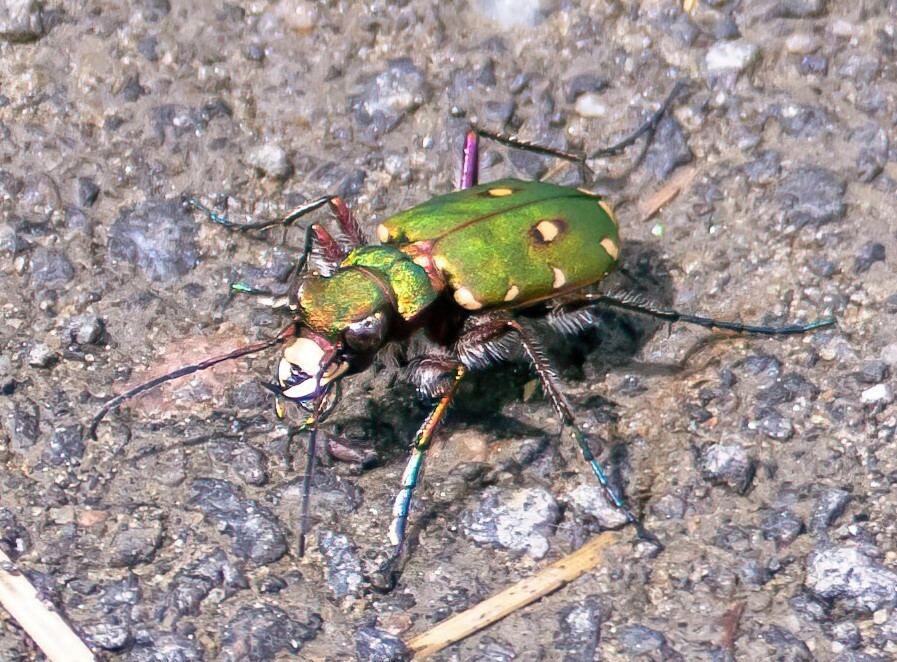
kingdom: Animalia
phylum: Arthropoda
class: Insecta
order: Coleoptera
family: Carabidae
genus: Cicindela
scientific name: Cicindela campestris
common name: Common tiger beetle
